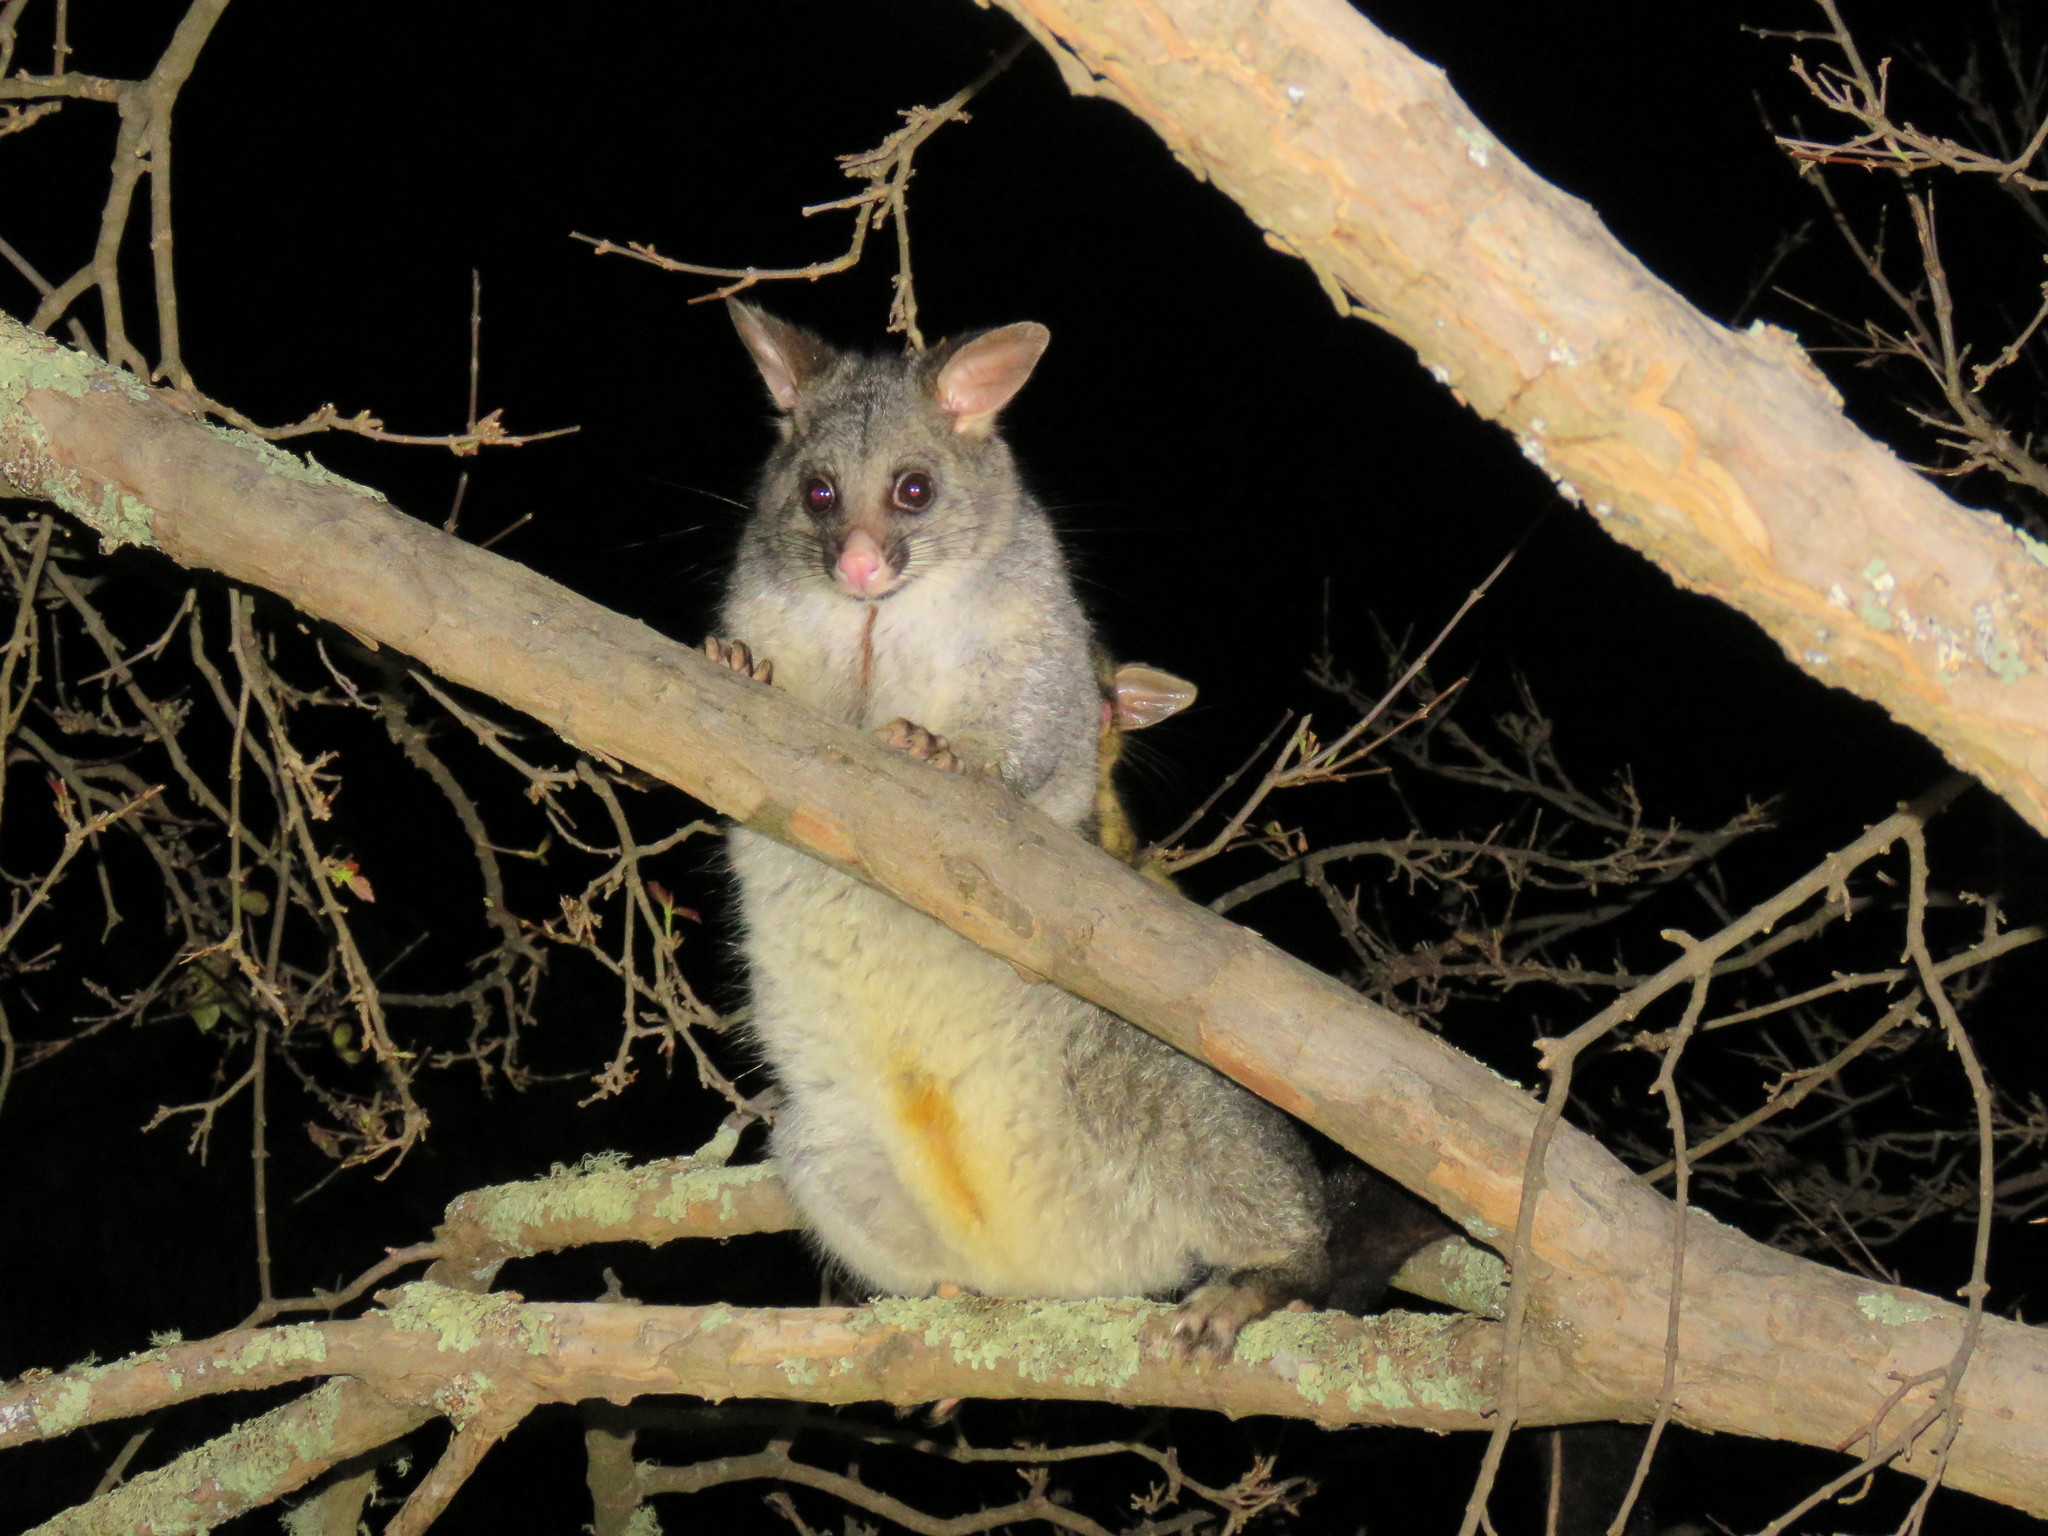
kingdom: Animalia
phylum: Chordata
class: Mammalia
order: Diprotodontia
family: Phalangeridae
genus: Trichosurus
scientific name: Trichosurus vulpecula
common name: Common brushtail
